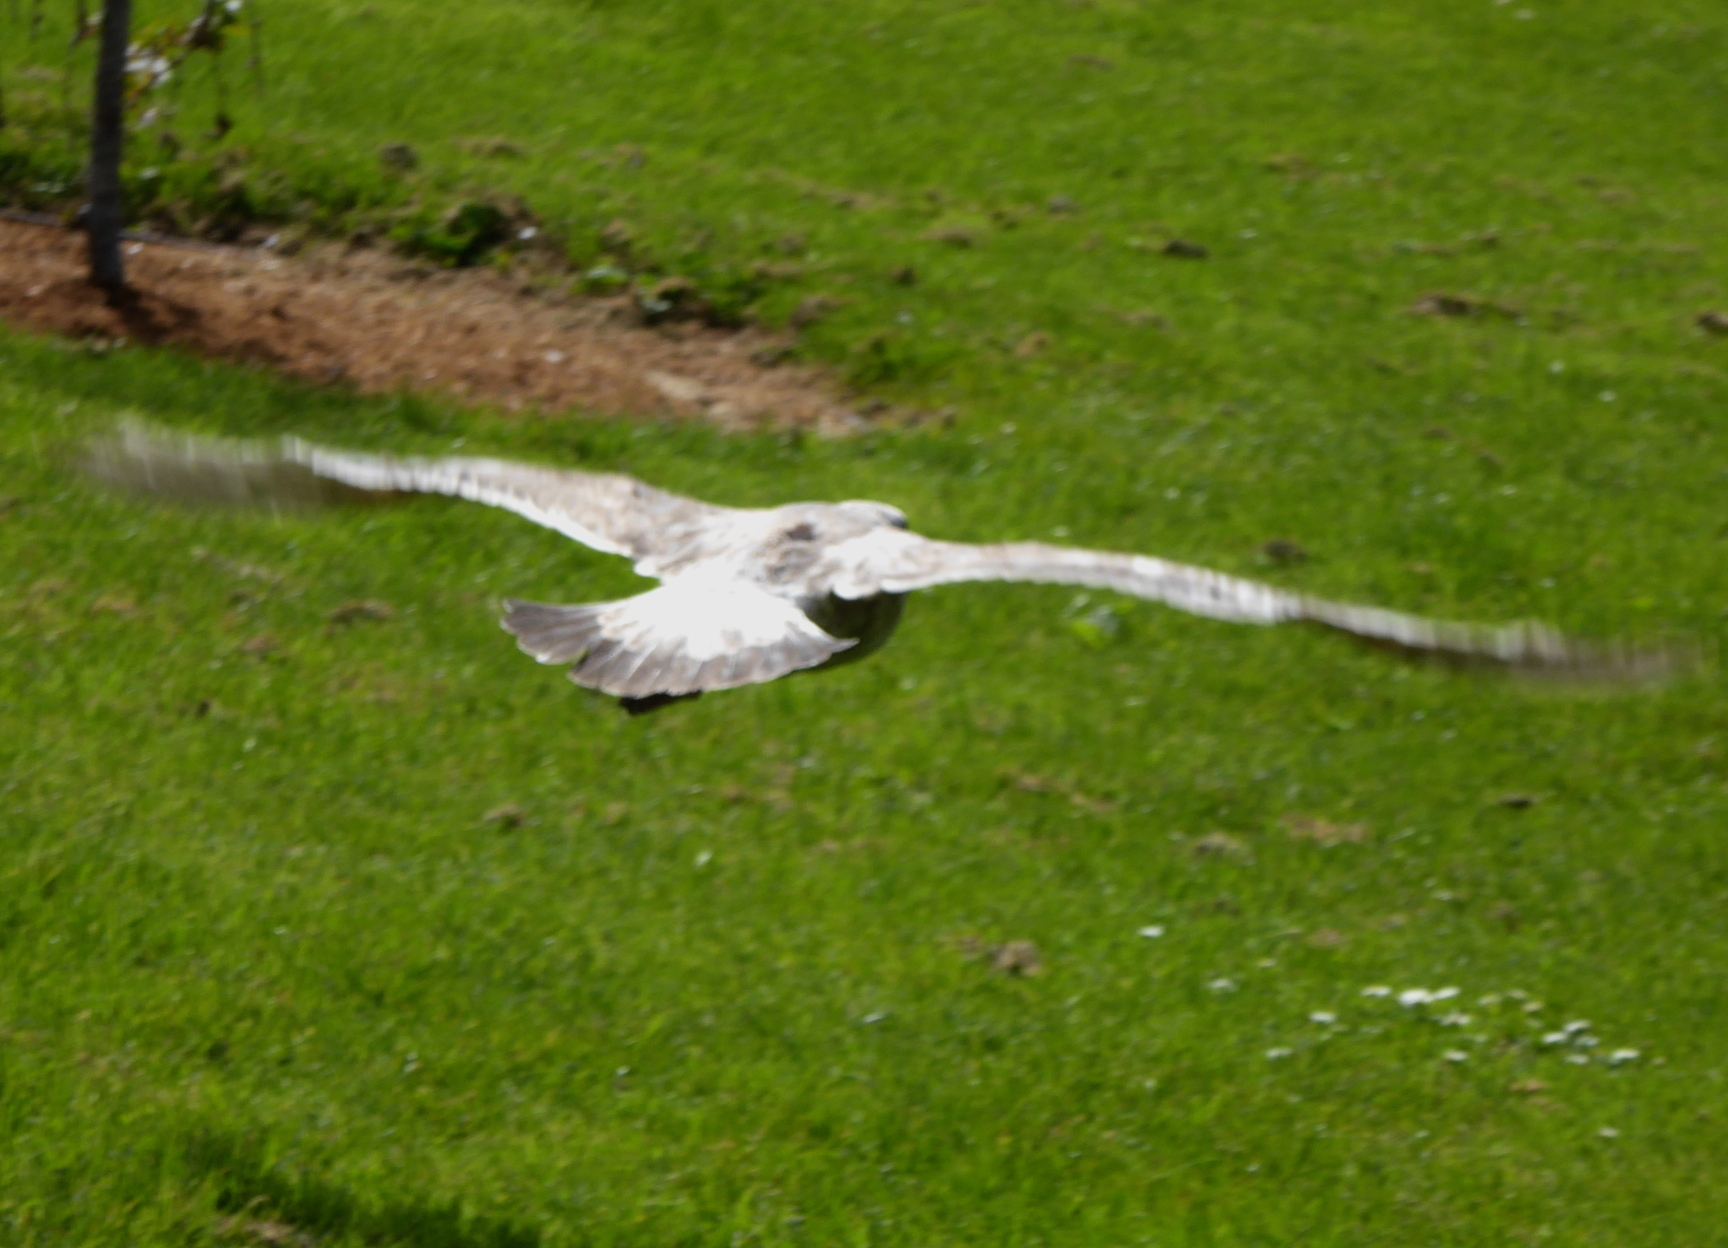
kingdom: Animalia
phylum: Chordata
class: Aves
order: Charadriiformes
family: Laridae
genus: Larus
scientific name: Larus
